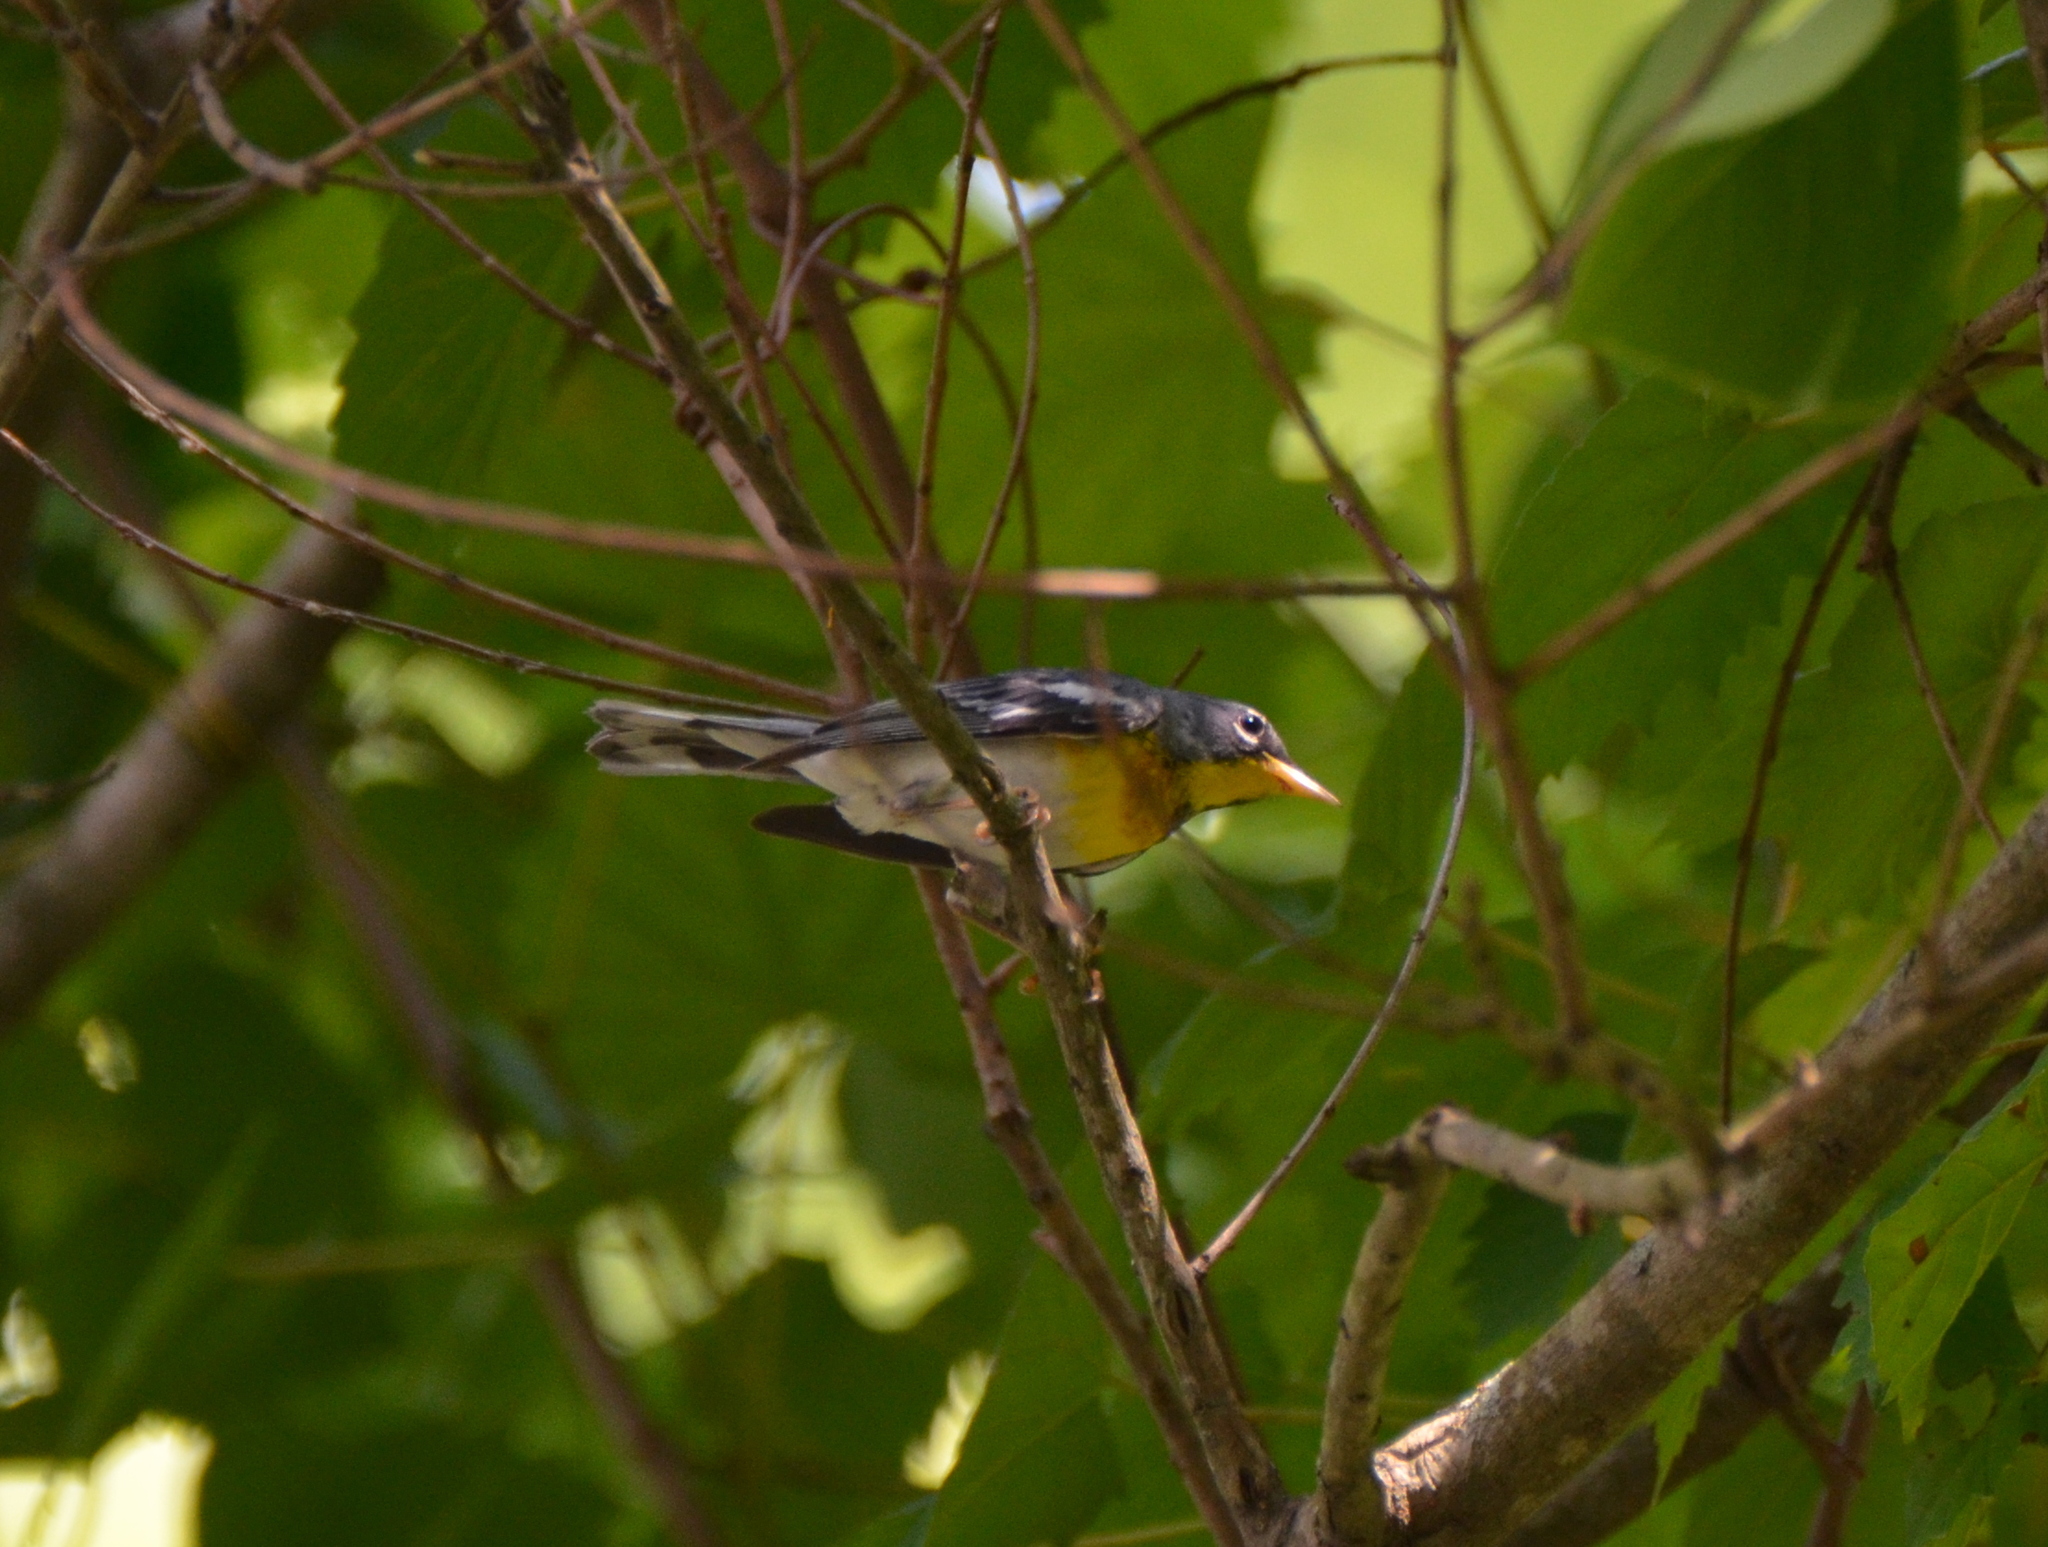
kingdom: Animalia
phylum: Chordata
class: Aves
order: Passeriformes
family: Parulidae
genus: Setophaga
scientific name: Setophaga americana
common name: Northern parula
